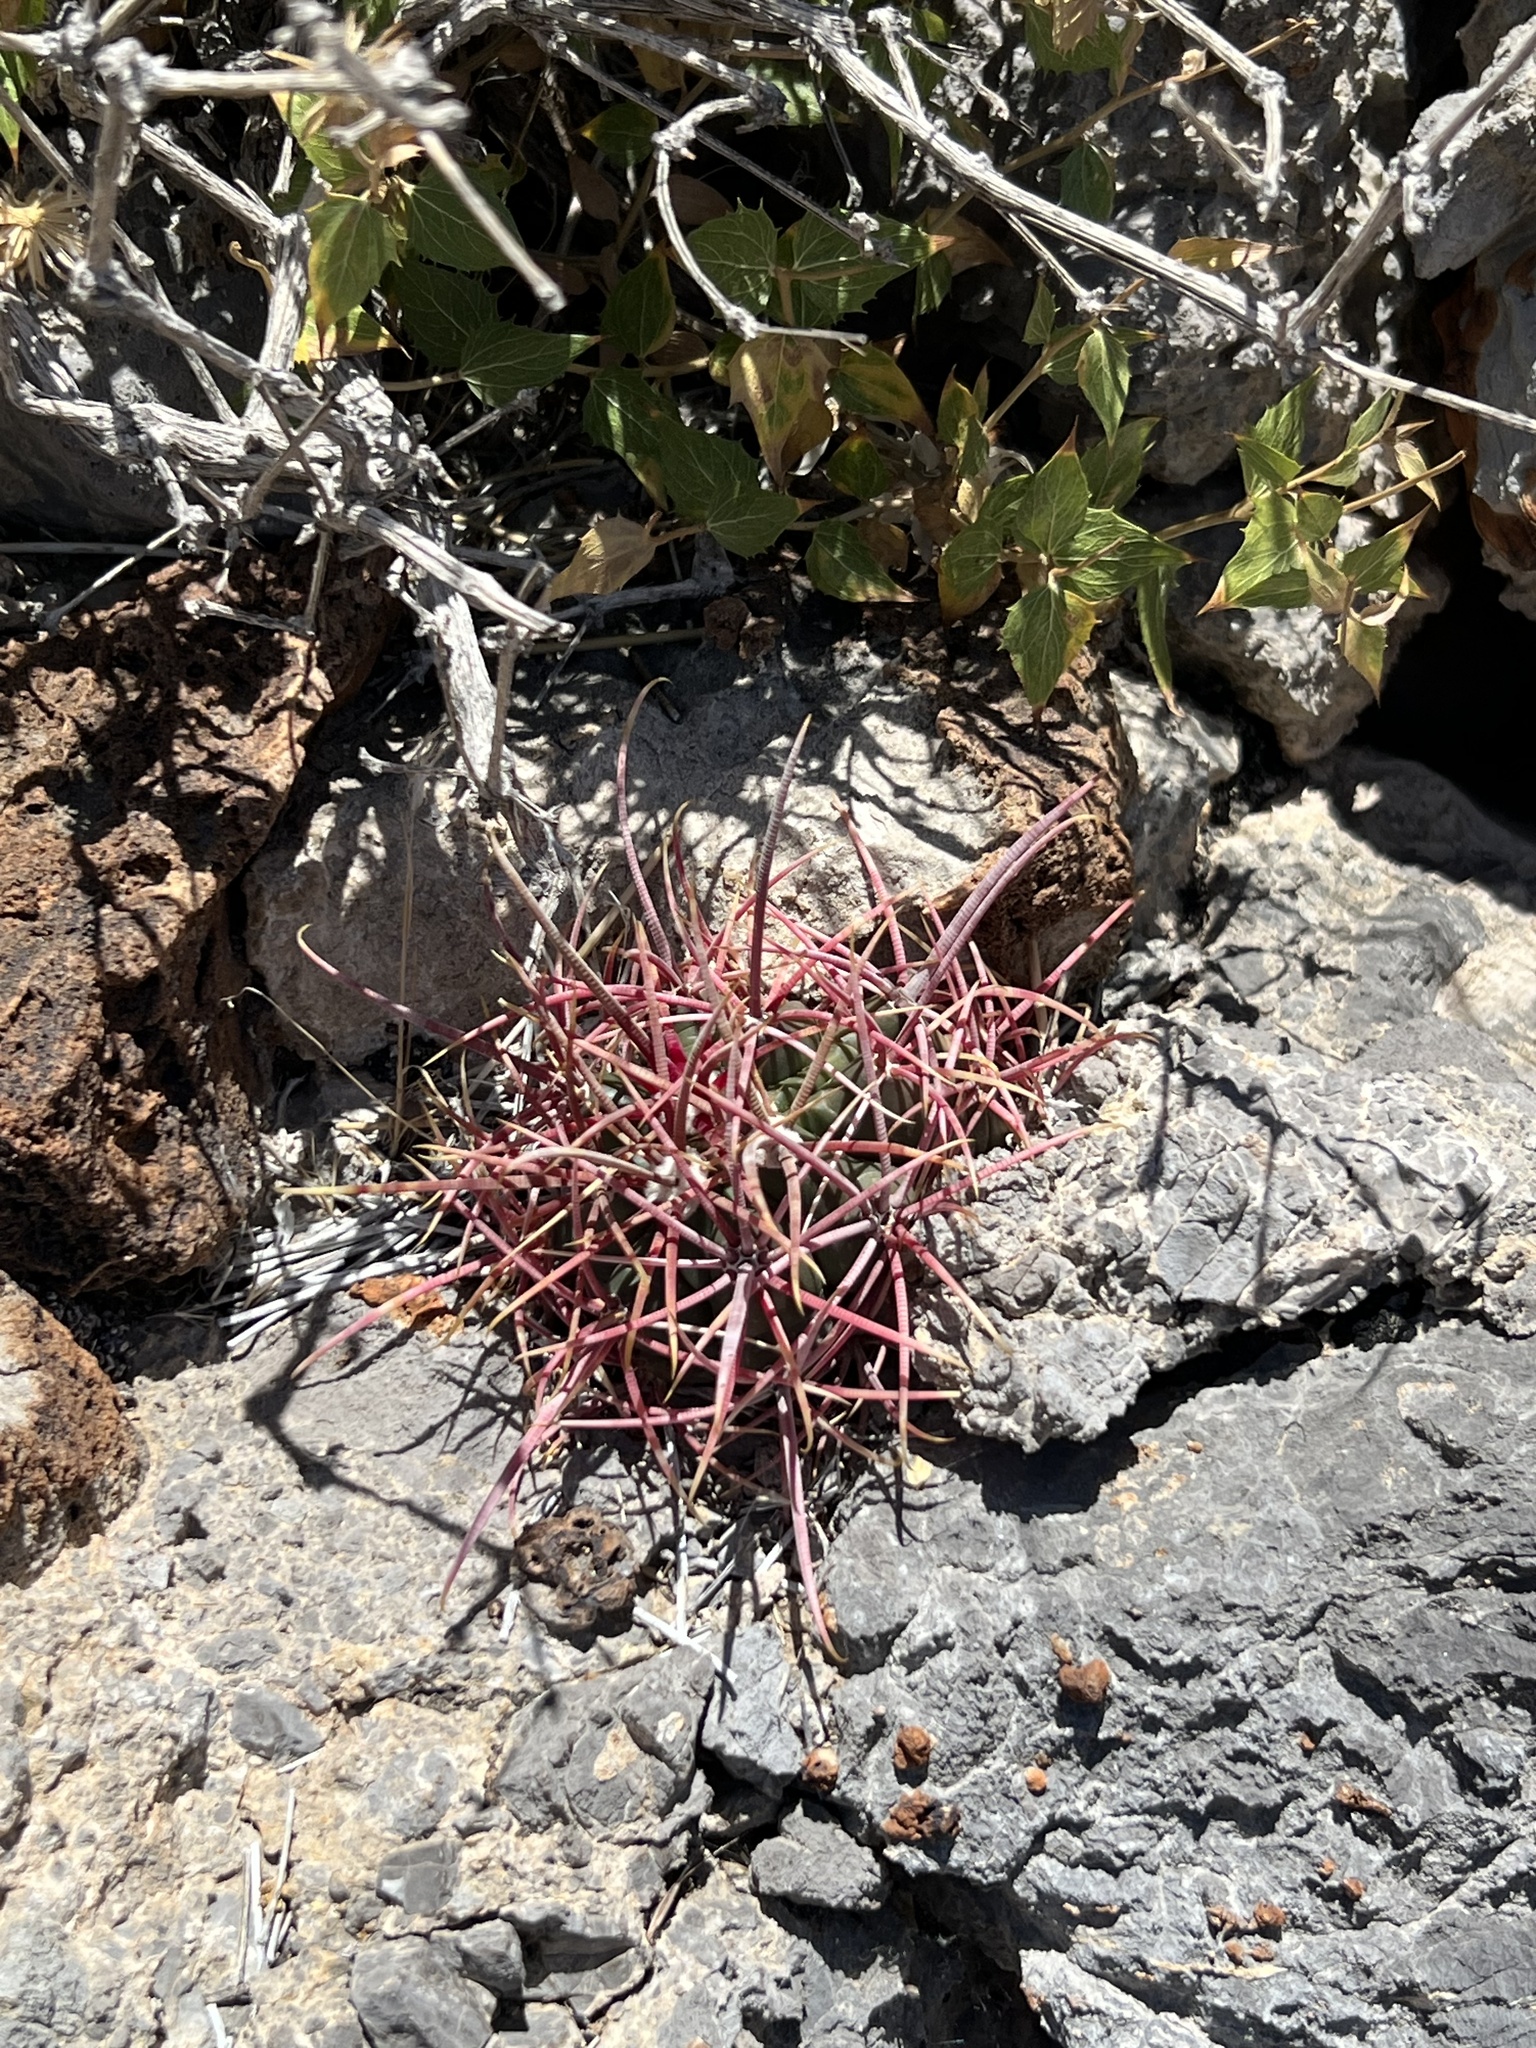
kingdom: Plantae
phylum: Tracheophyta
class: Magnoliopsida
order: Caryophyllales
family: Cactaceae
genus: Ferocactus
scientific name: Ferocactus cylindraceus
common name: California barrel cactus
